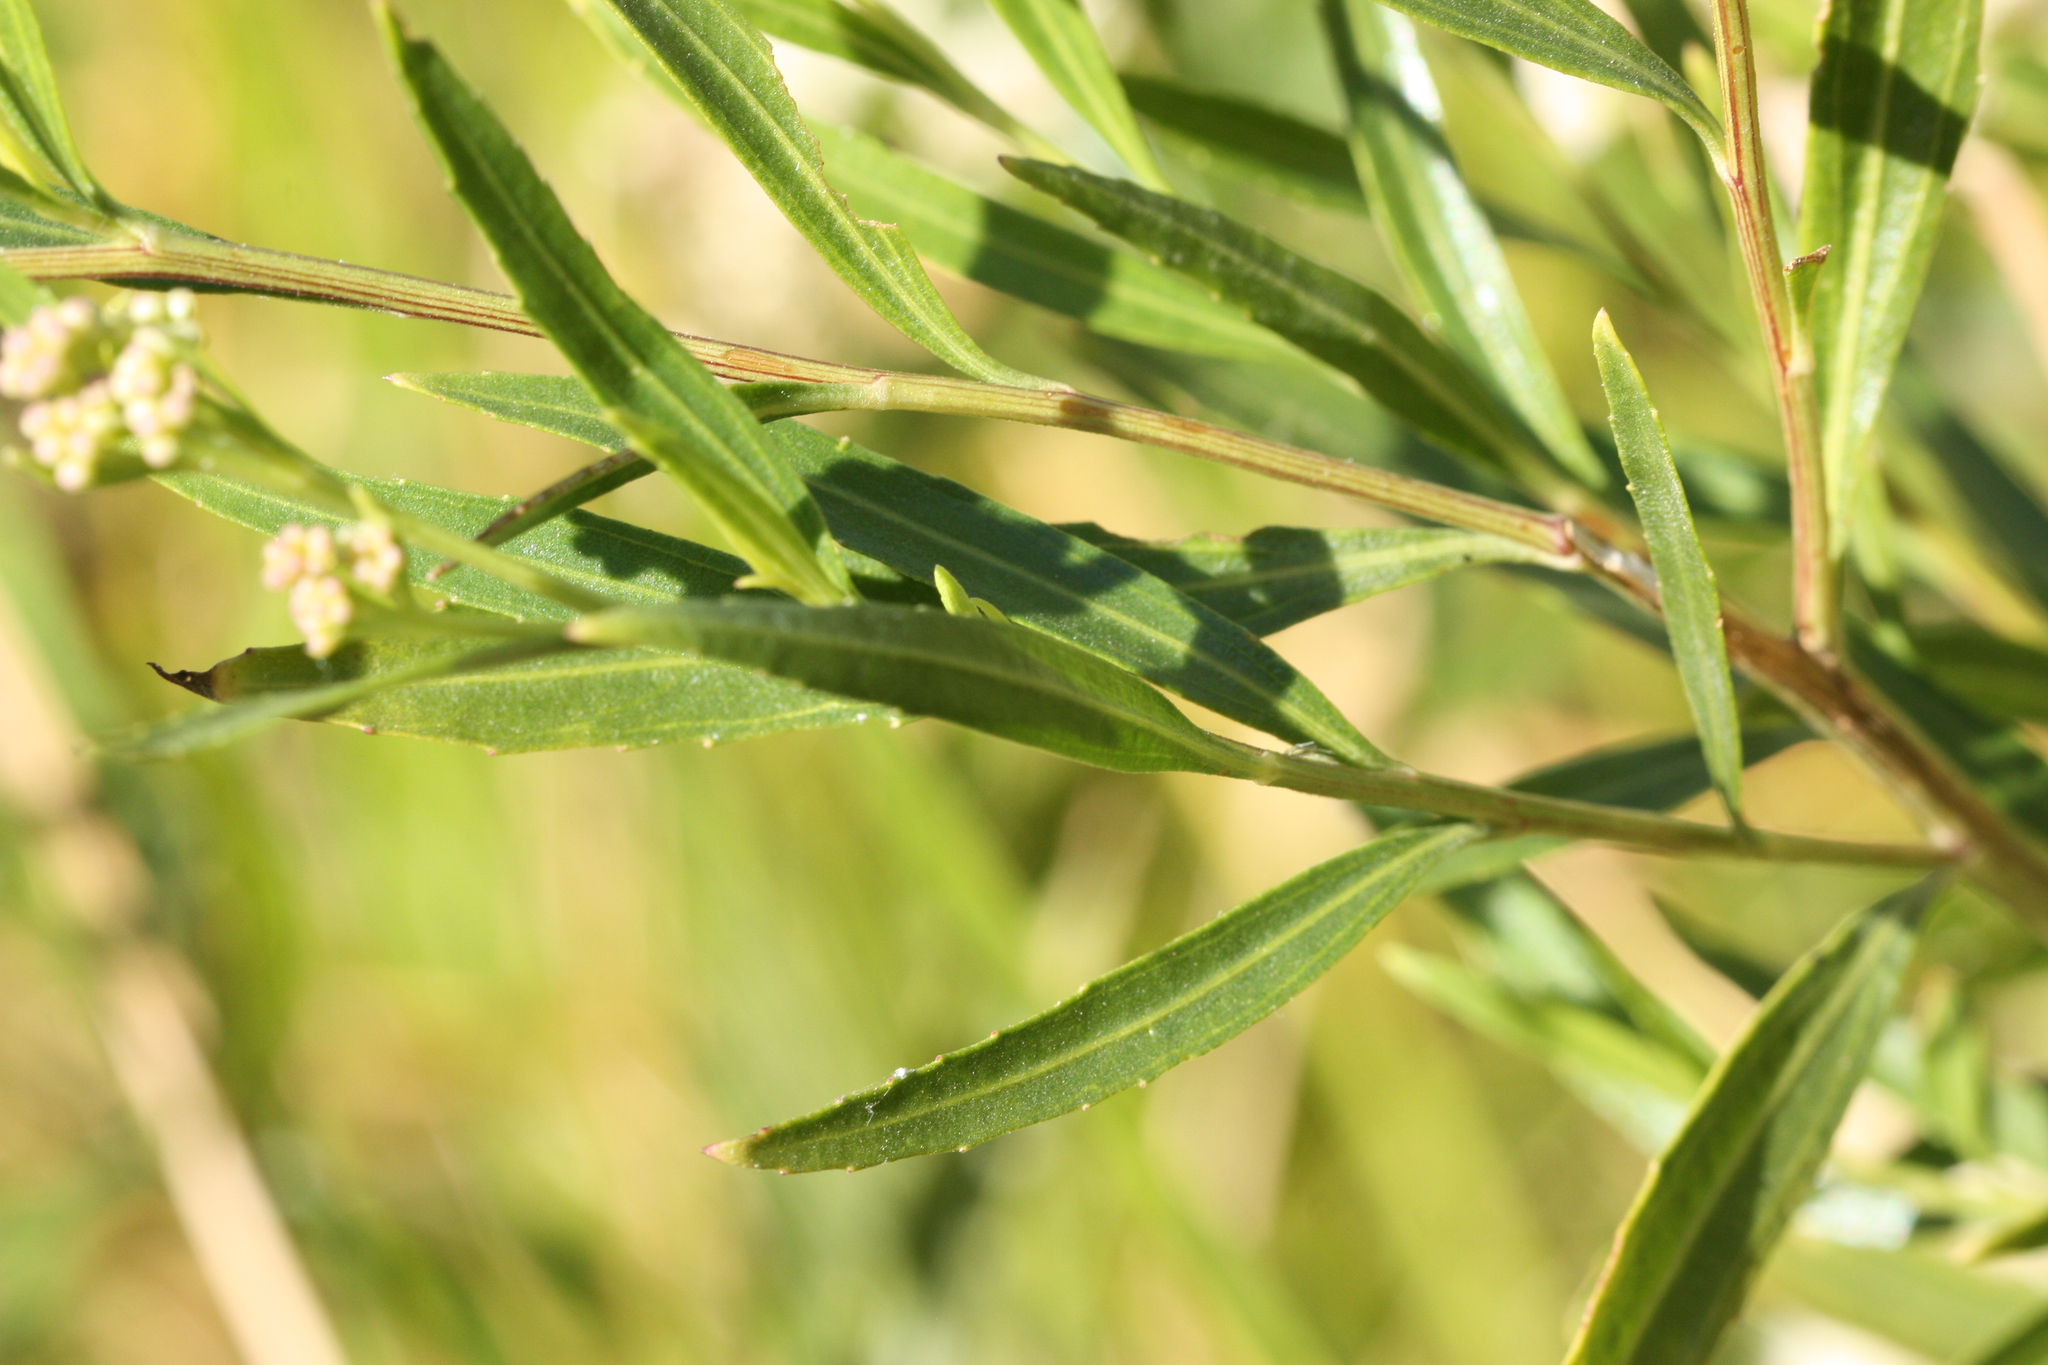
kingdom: Plantae
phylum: Tracheophyta
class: Magnoliopsida
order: Asterales
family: Asteraceae
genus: Baccharis
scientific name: Baccharis salicifolia
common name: Sticky baccharis
